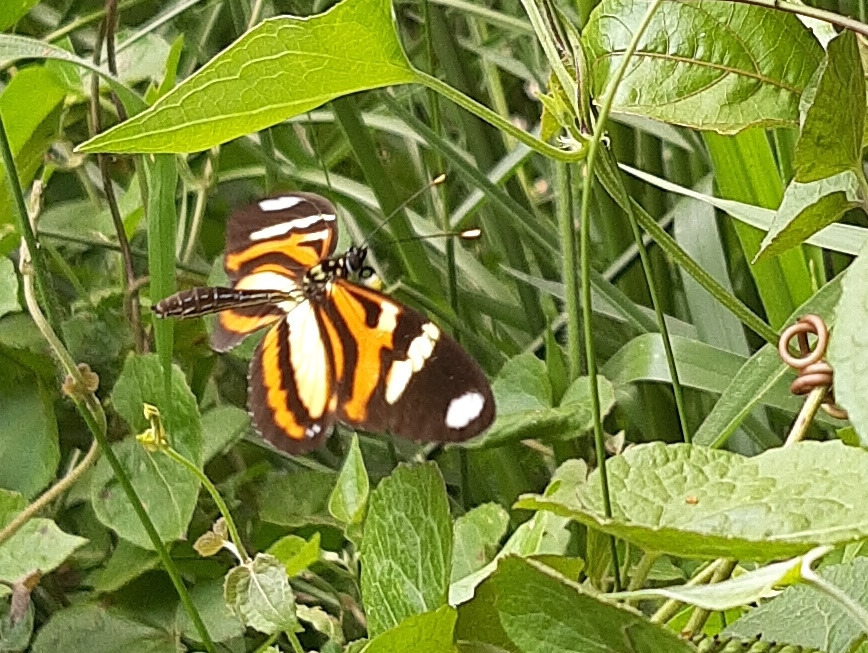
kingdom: Animalia
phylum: Arthropoda
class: Insecta
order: Lepidoptera
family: Nymphalidae
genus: Heliconius
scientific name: Heliconius ethilla
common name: Ethilia longwing
